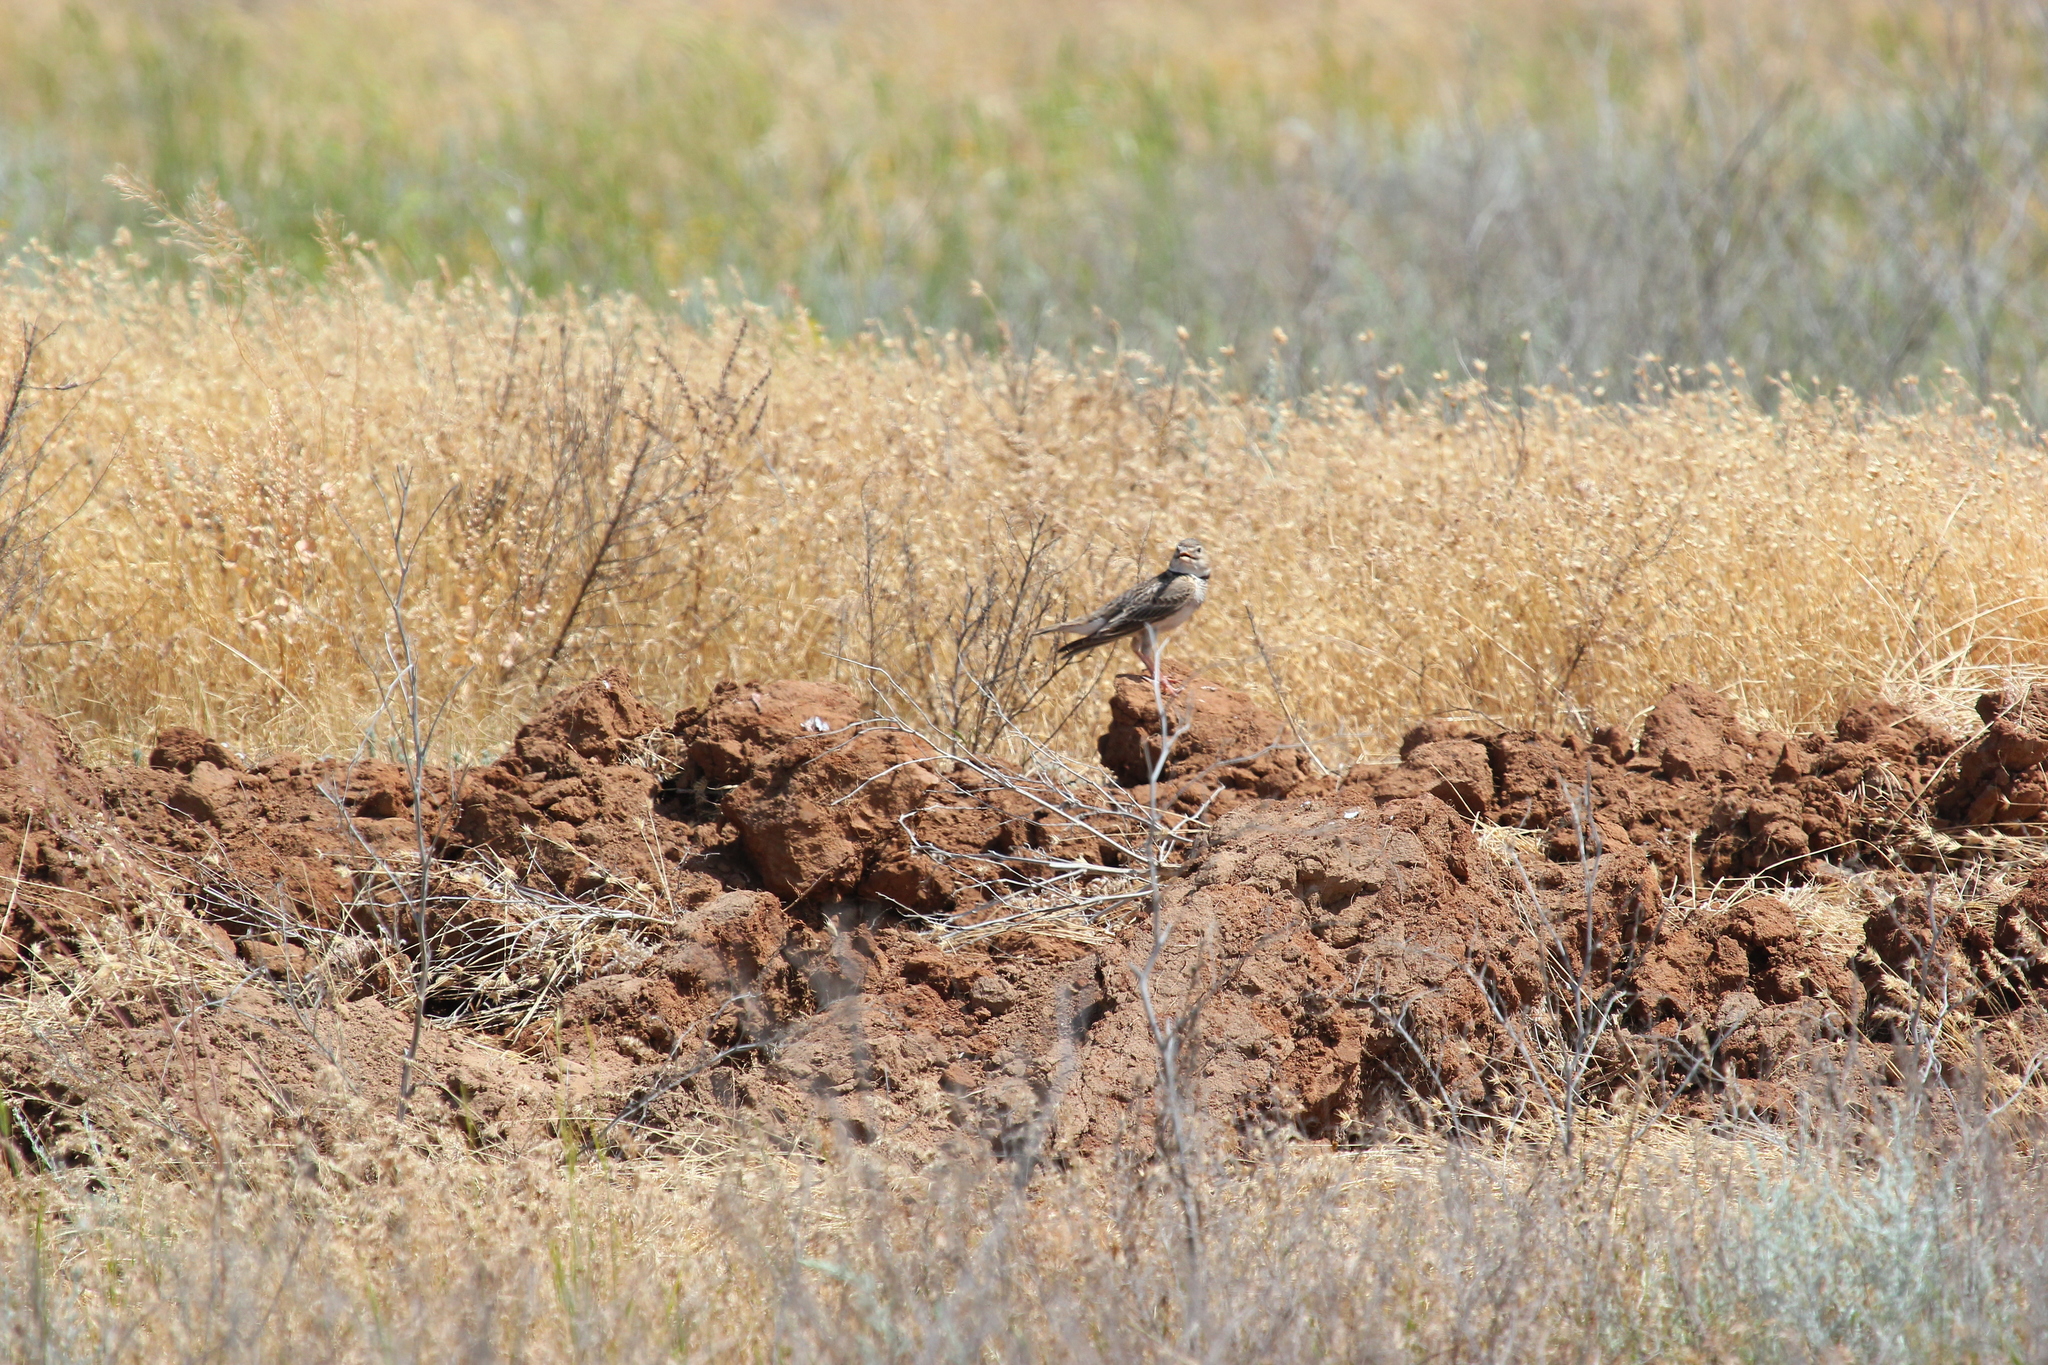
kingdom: Animalia
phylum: Chordata
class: Aves
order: Passeriformes
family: Alaudidae
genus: Melanocorypha
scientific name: Melanocorypha calandra
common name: Calandra lark
